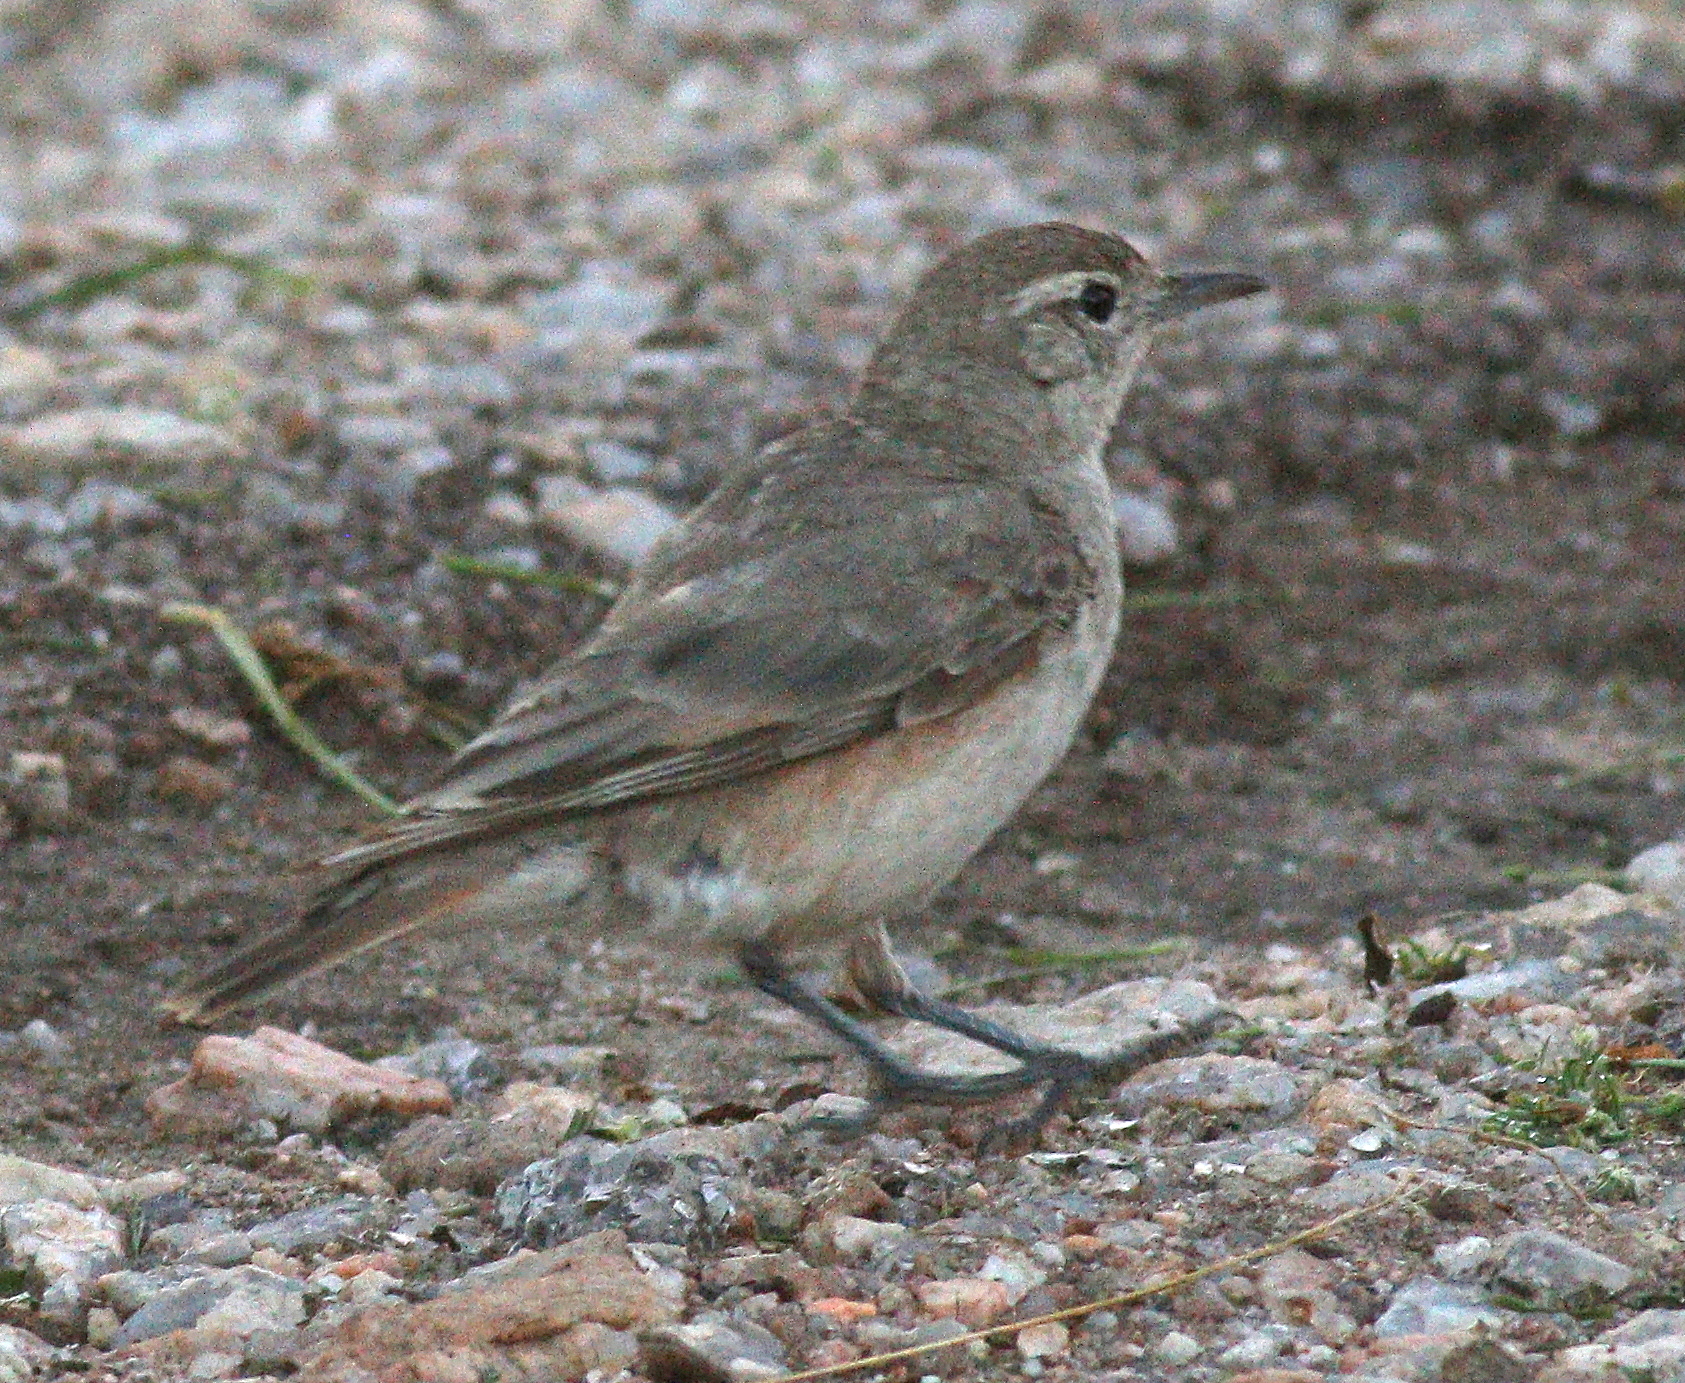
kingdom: Animalia
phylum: Chordata
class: Aves
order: Passeriformes
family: Furnariidae
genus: Geositta
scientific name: Geositta rufipennis
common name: Rufous-banded miner
